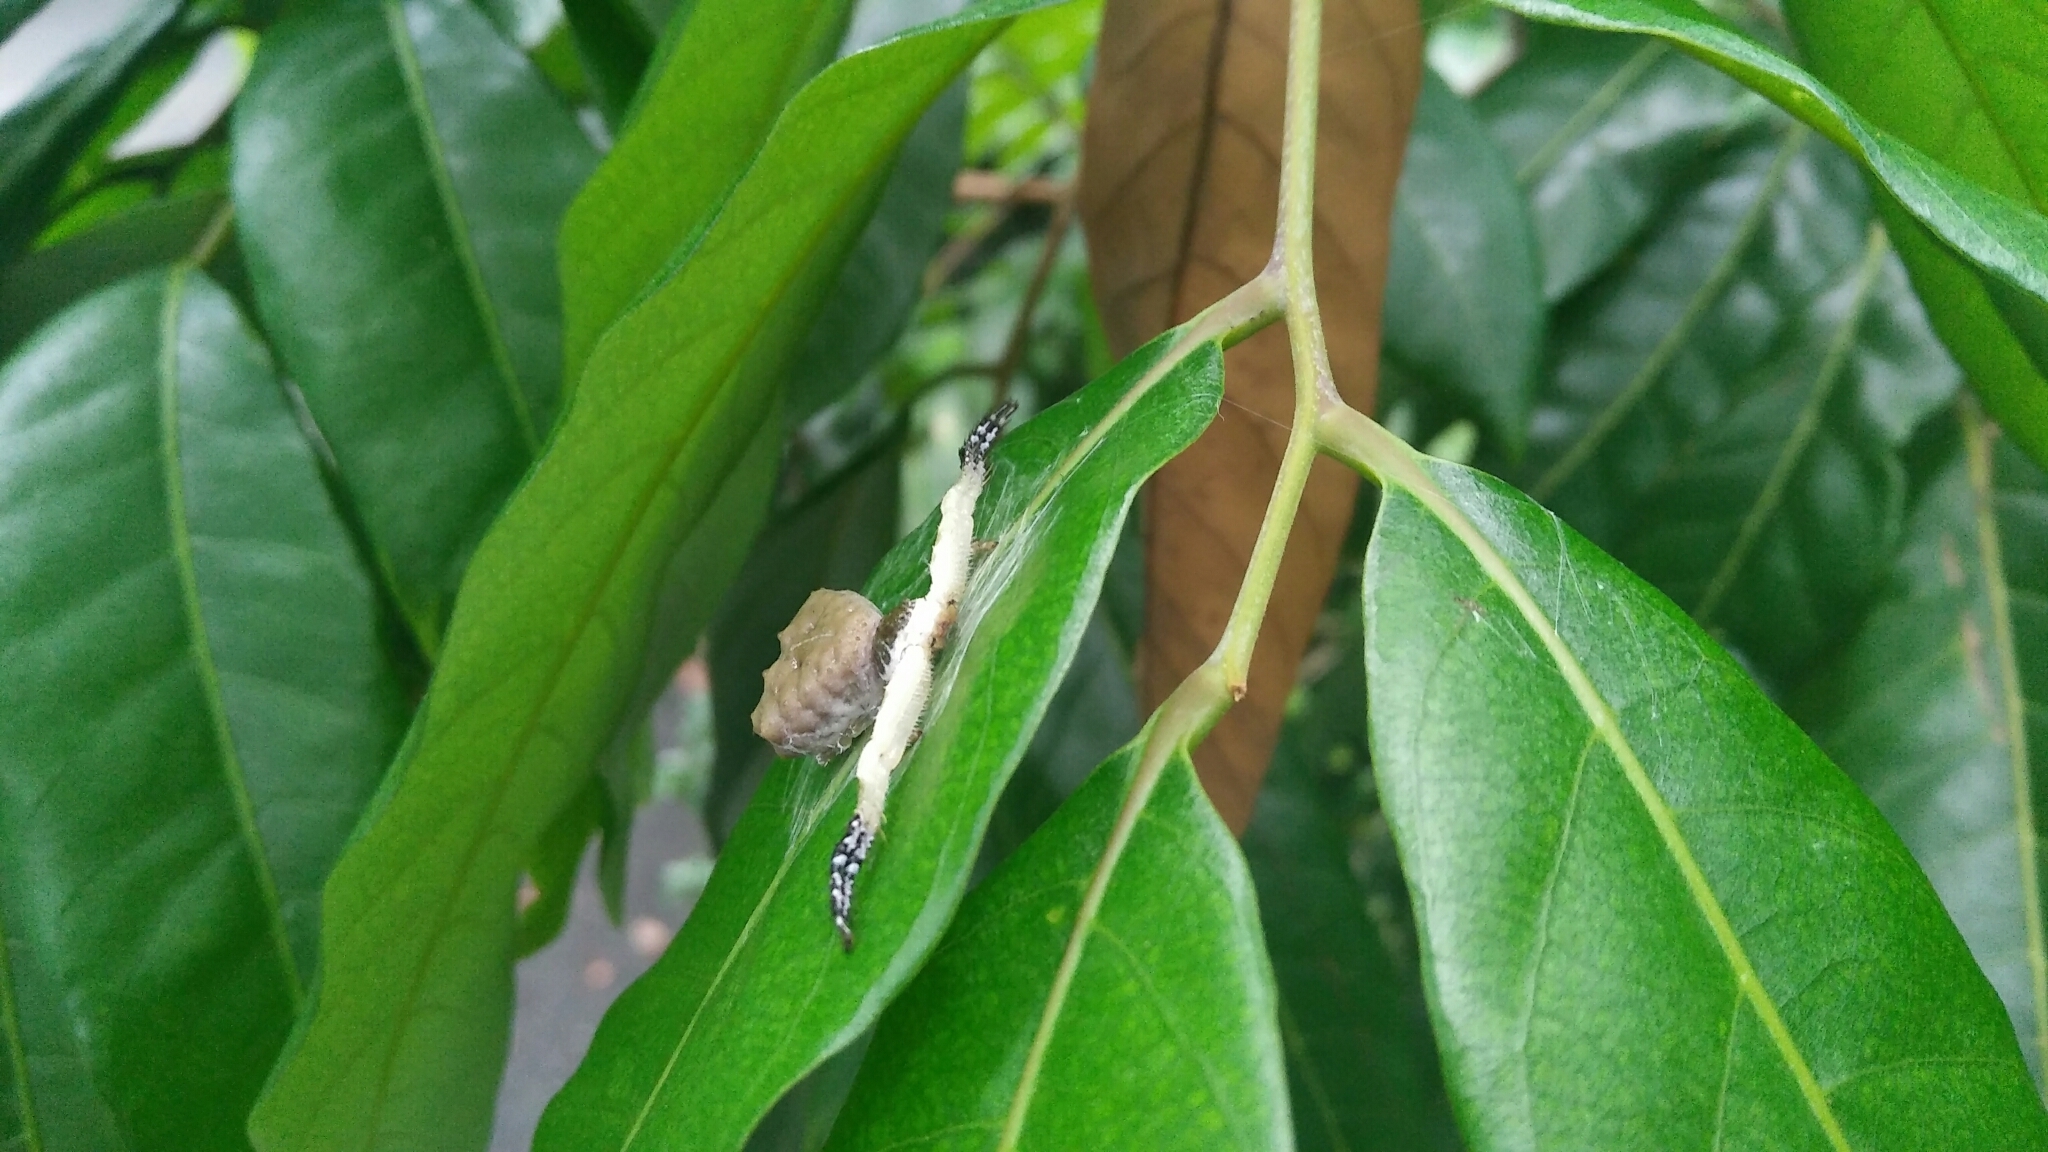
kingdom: Animalia
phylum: Arthropoda
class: Arachnida
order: Araneae
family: Thomisidae
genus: Phrynarachne
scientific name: Phrynarachne ceylonica
